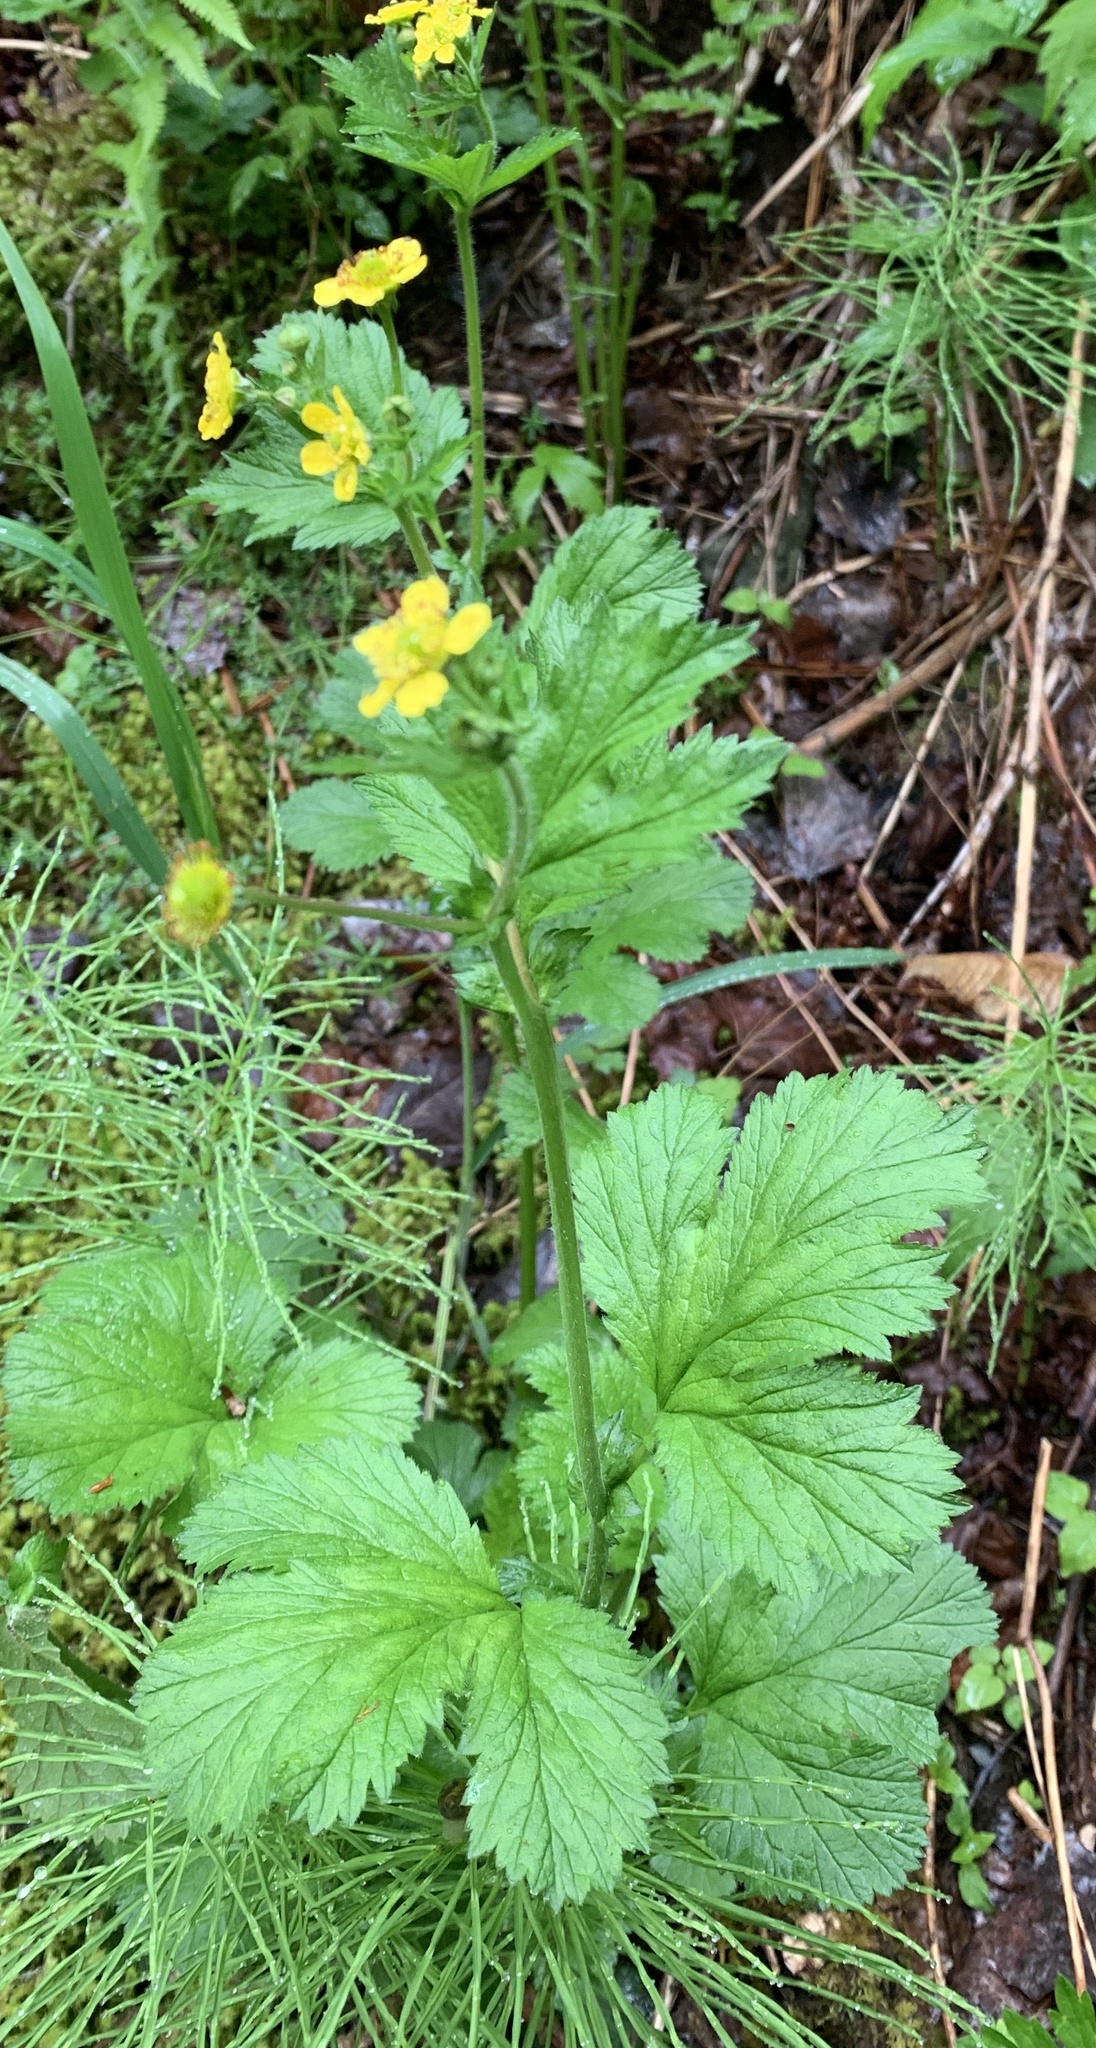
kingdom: Plantae
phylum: Tracheophyta
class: Magnoliopsida
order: Rosales
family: Rosaceae
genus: Geum
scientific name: Geum macrophyllum
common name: Large-leaved avens
